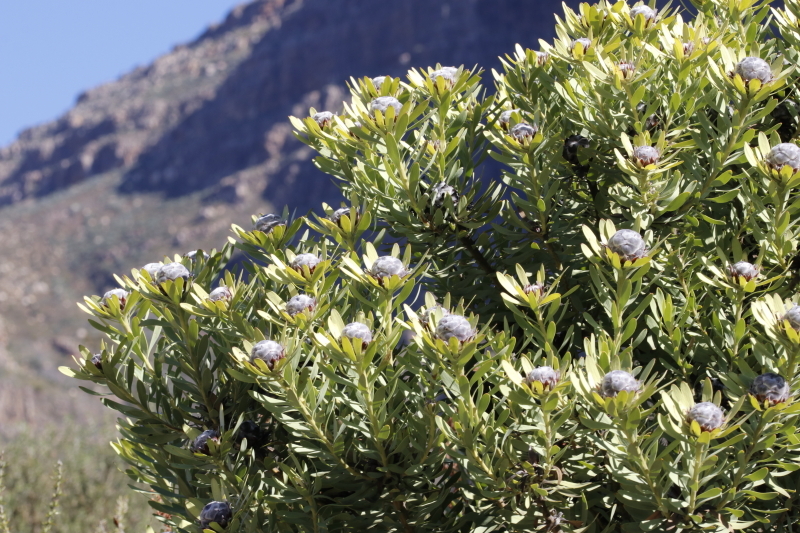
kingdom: Plantae
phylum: Tracheophyta
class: Magnoliopsida
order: Proteales
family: Proteaceae
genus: Leucadendron
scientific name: Leucadendron pubescens
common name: Grey conebush
